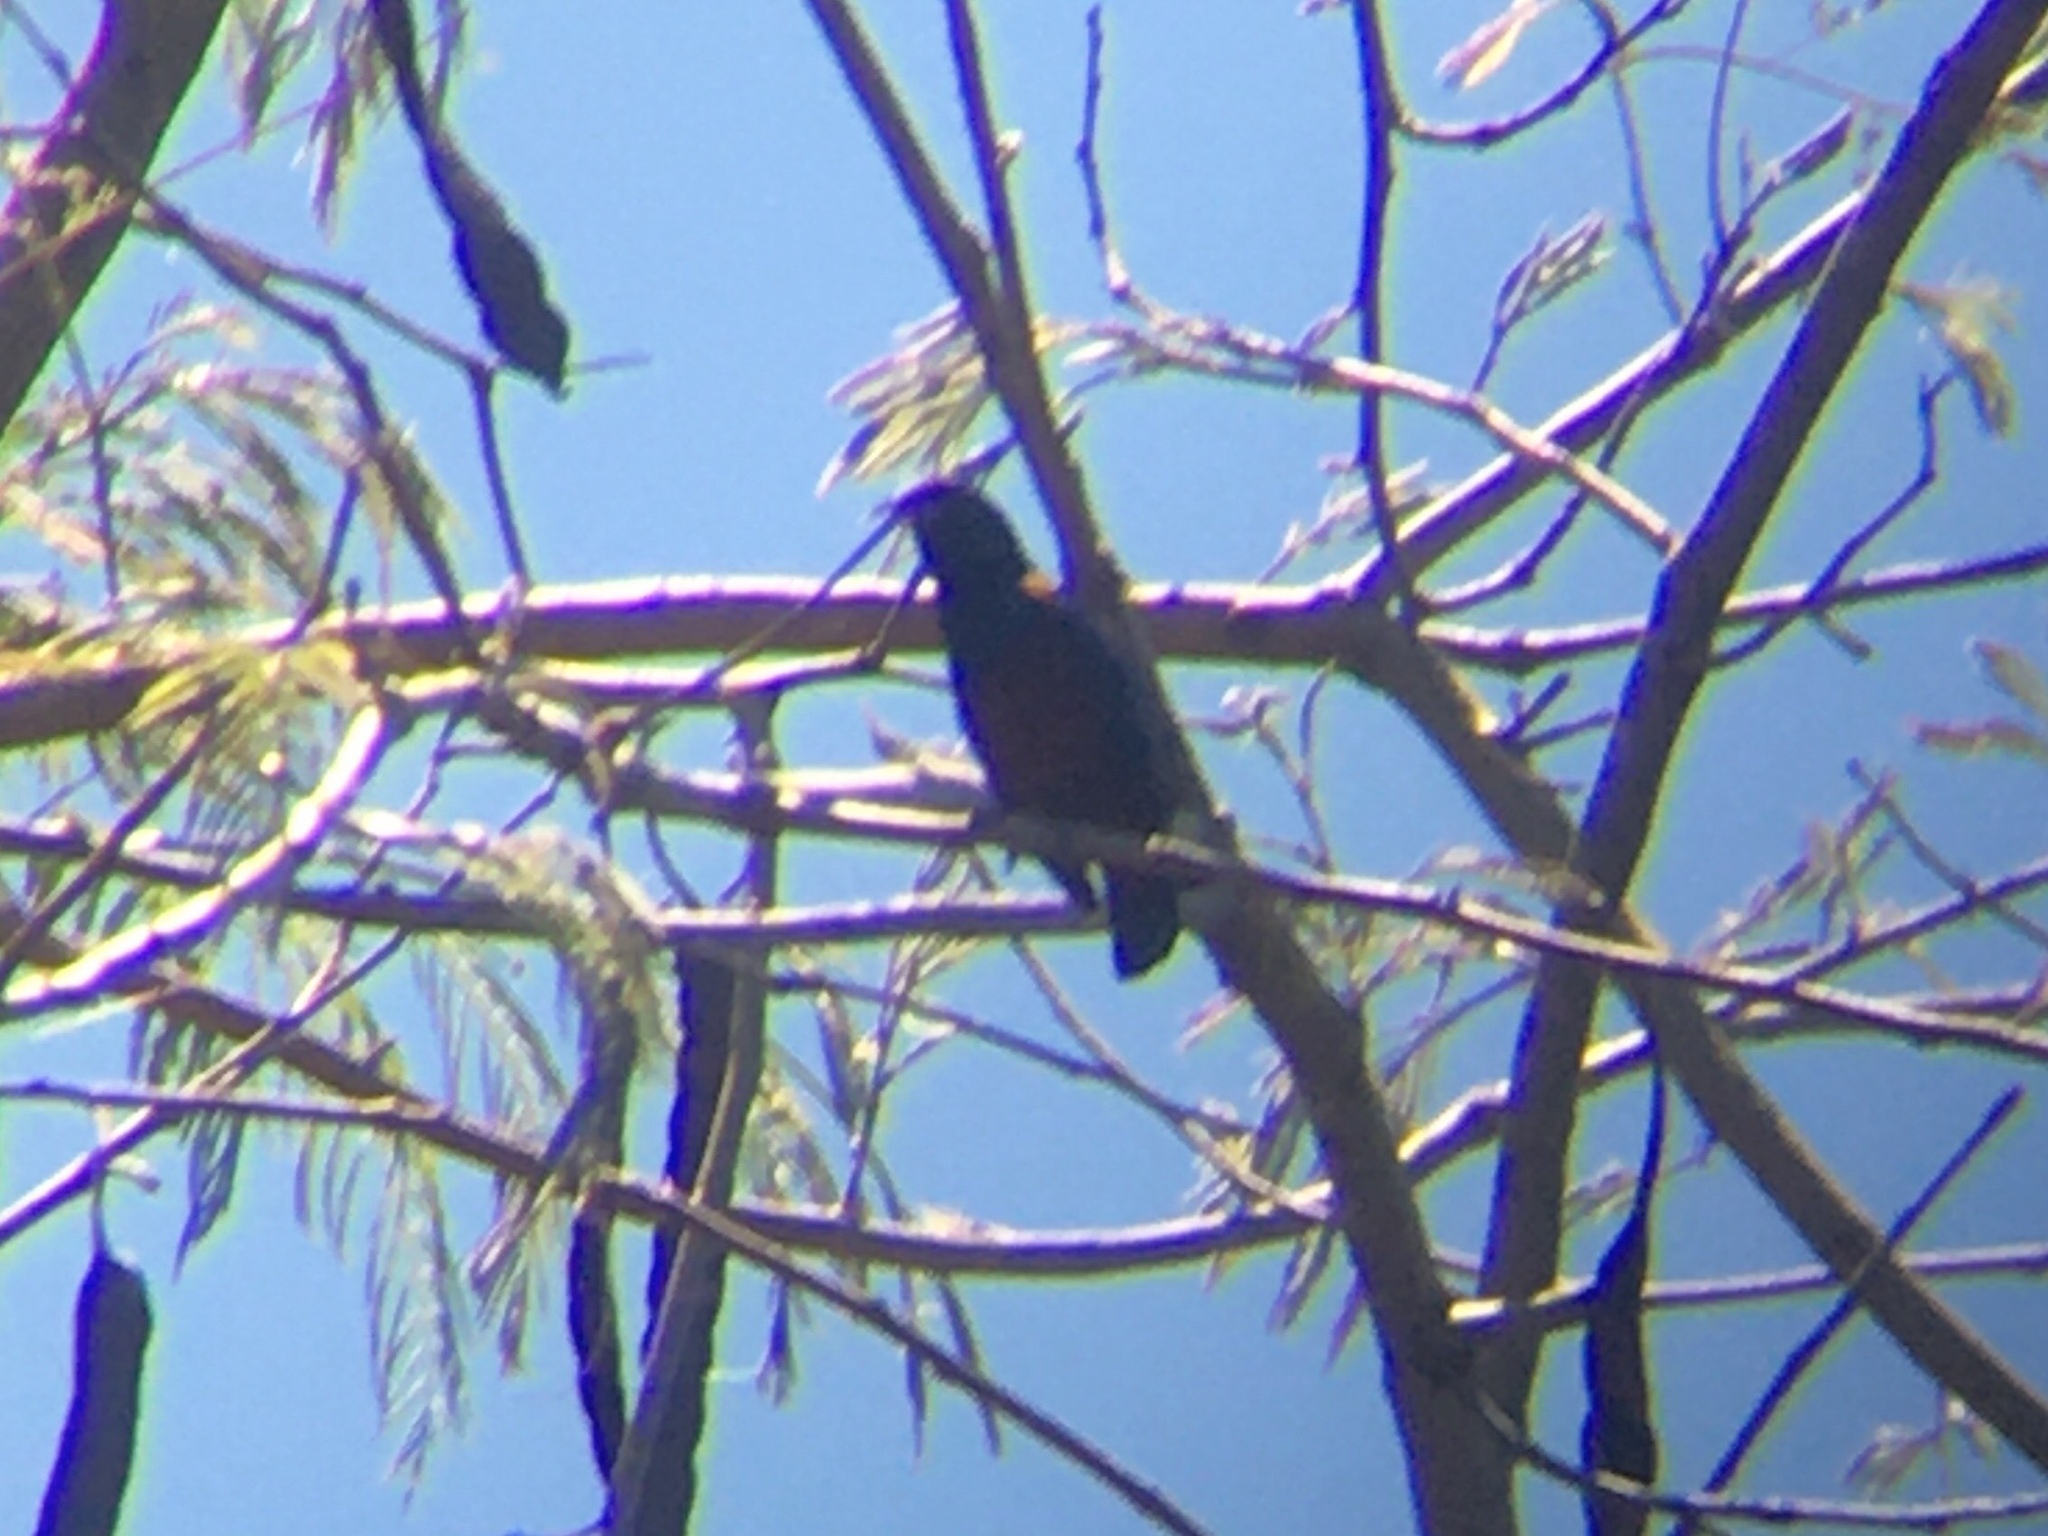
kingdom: Animalia
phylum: Chordata
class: Aves
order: Passeriformes
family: Fringillidae
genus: Euphonia
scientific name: Euphonia pectoralis
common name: Chestnut-bellied euphonia
